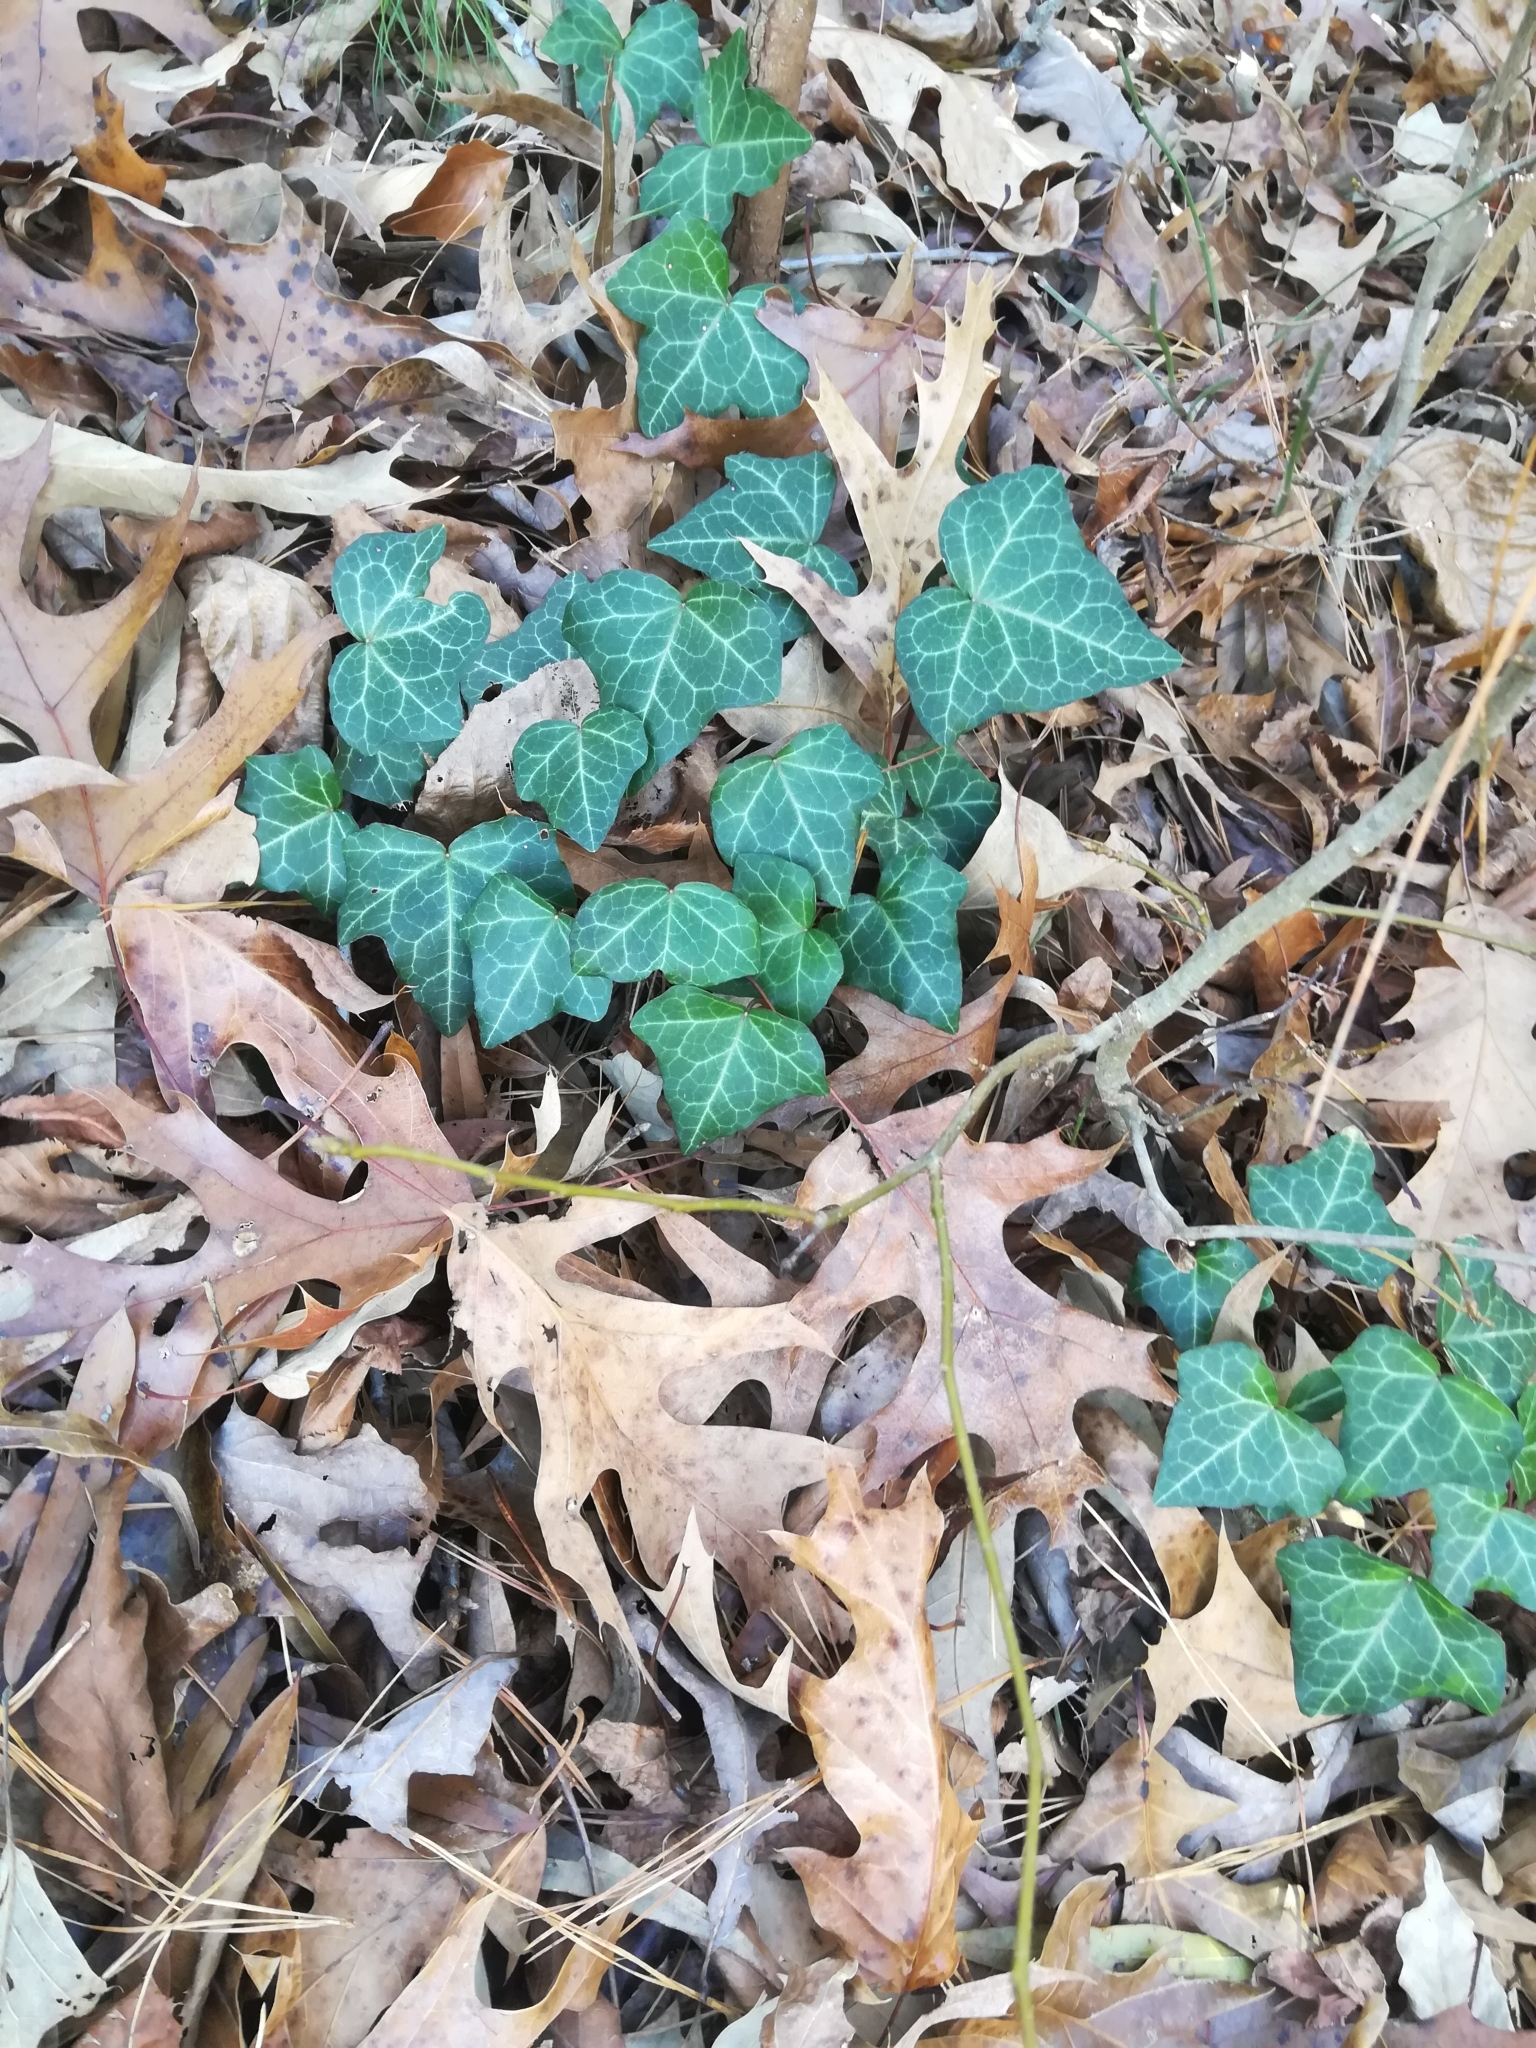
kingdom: Plantae
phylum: Tracheophyta
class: Magnoliopsida
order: Apiales
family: Araliaceae
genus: Hedera
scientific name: Hedera helix
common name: Ivy
